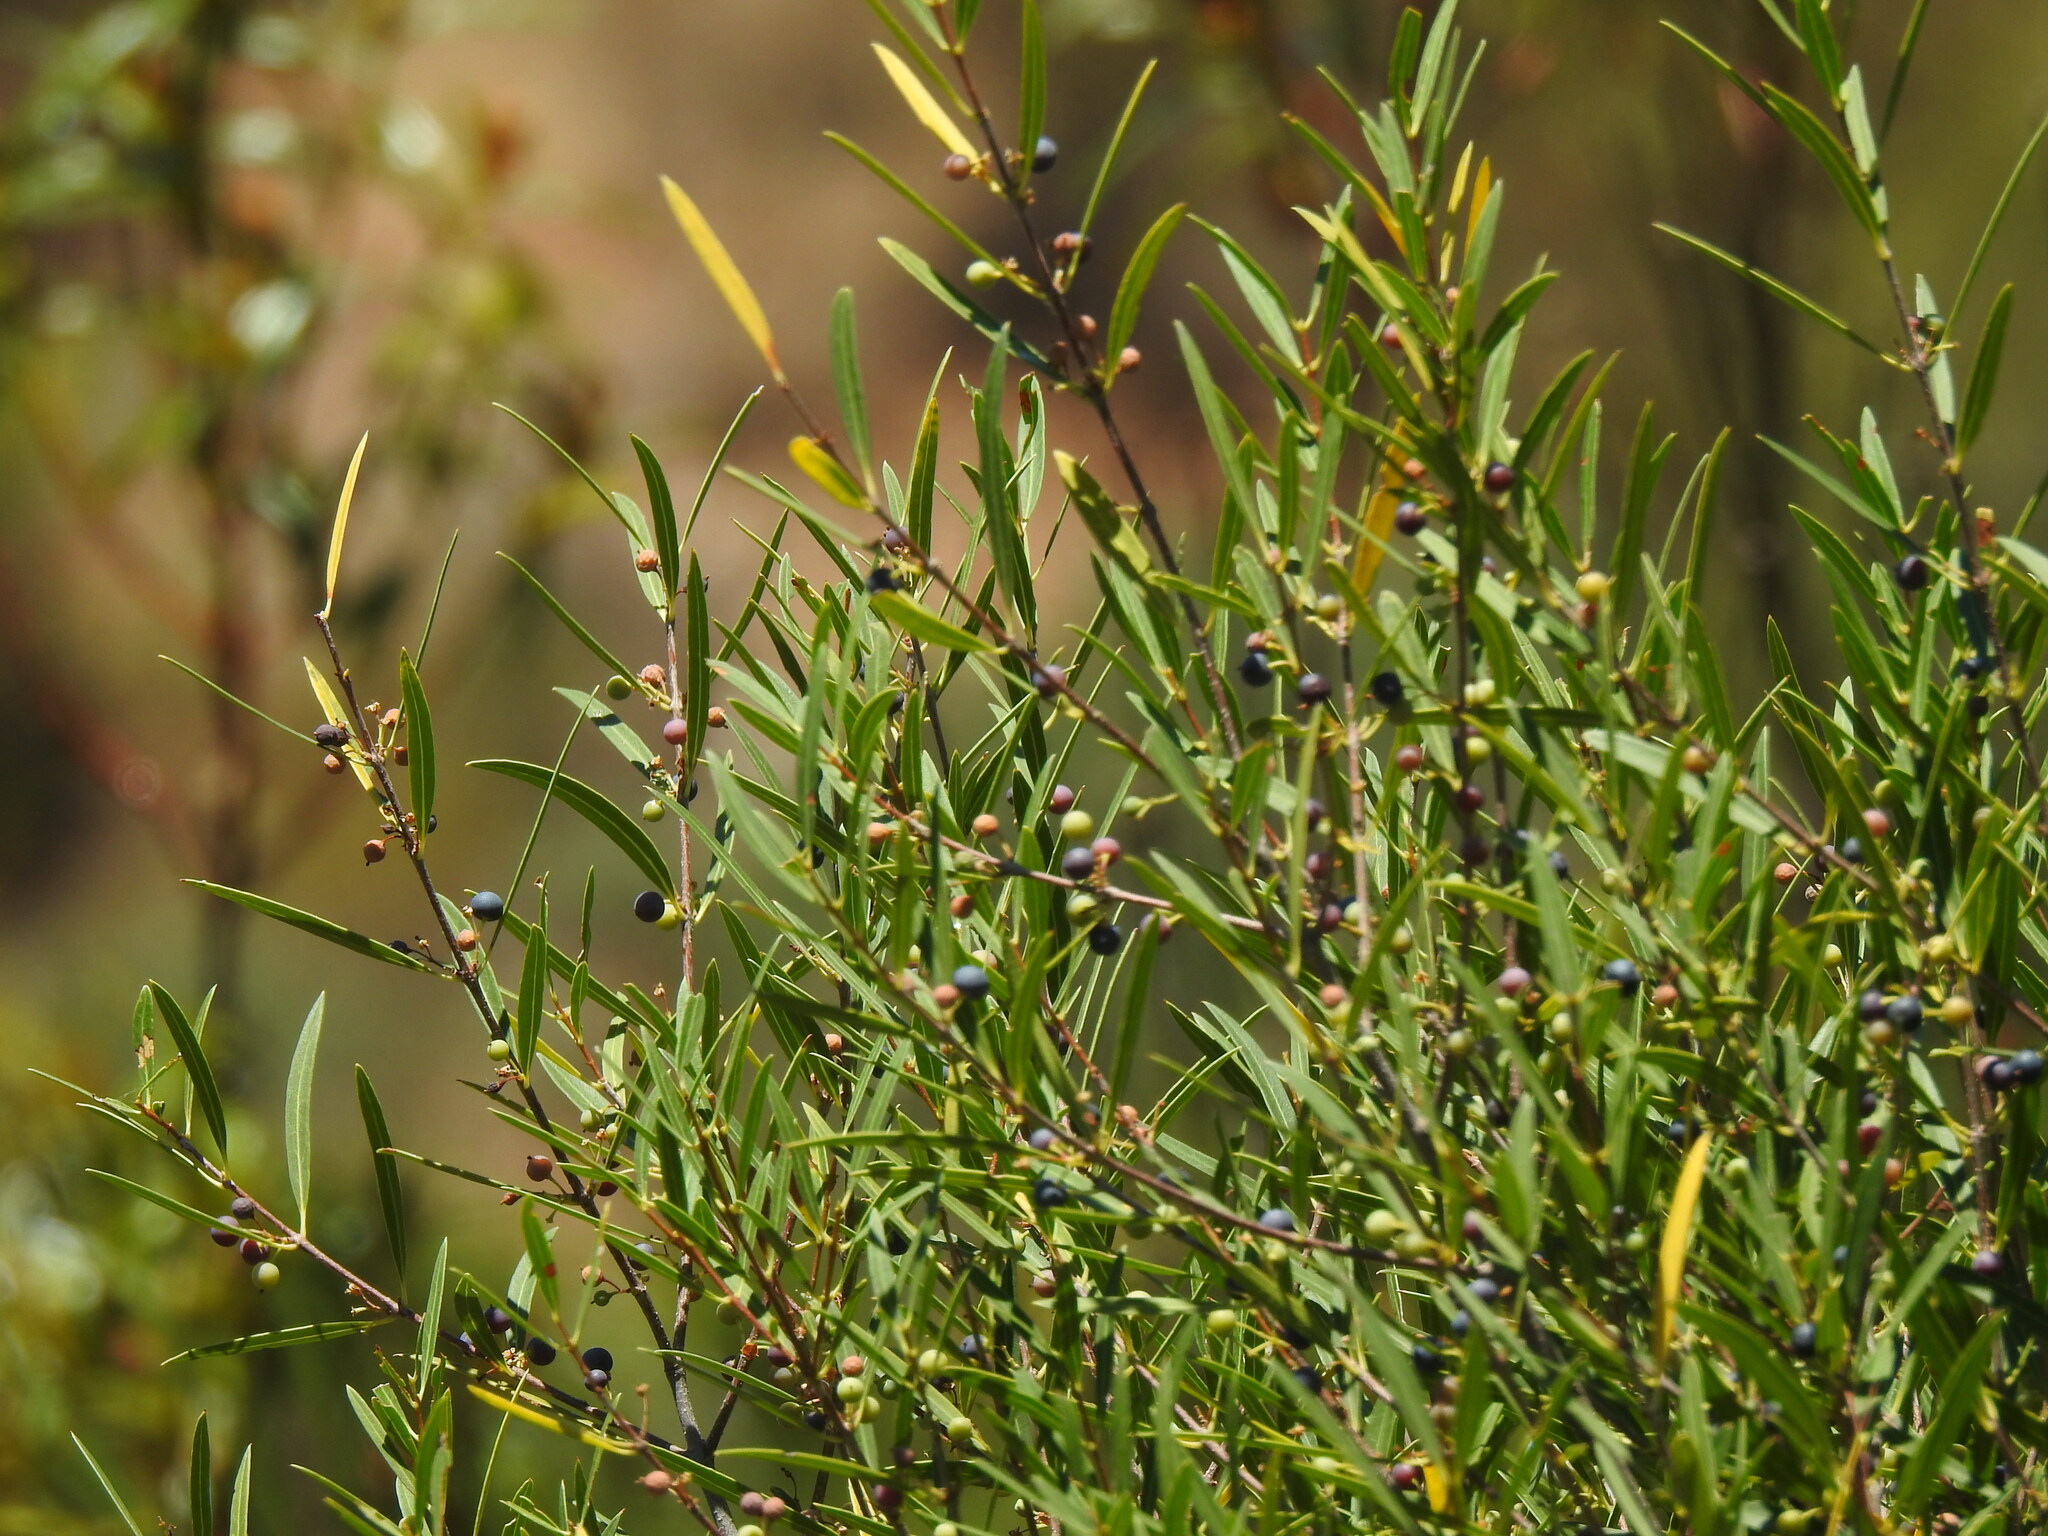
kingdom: Plantae
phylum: Tracheophyta
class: Magnoliopsida
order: Lamiales
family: Oleaceae
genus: Phillyrea
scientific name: Phillyrea angustifolia
